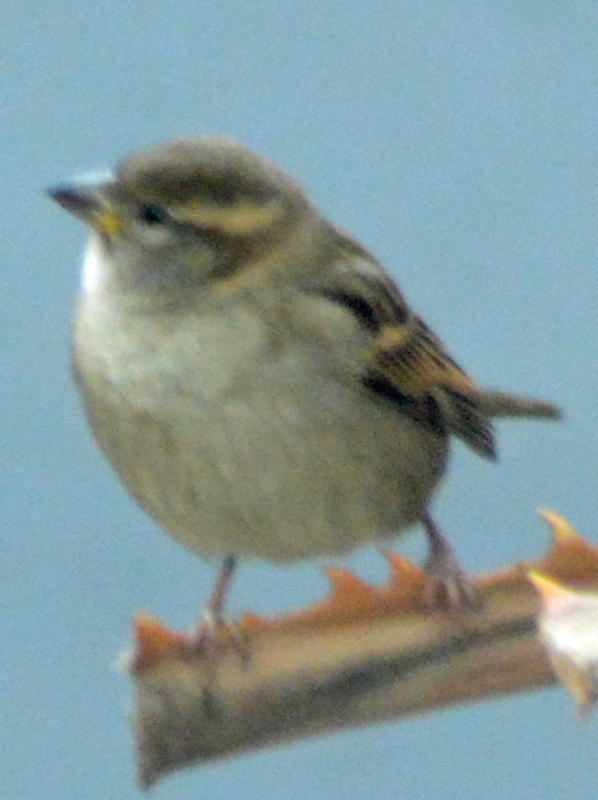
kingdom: Animalia
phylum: Chordata
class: Aves
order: Passeriformes
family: Passeridae
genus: Passer
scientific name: Passer domesticus
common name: House sparrow
